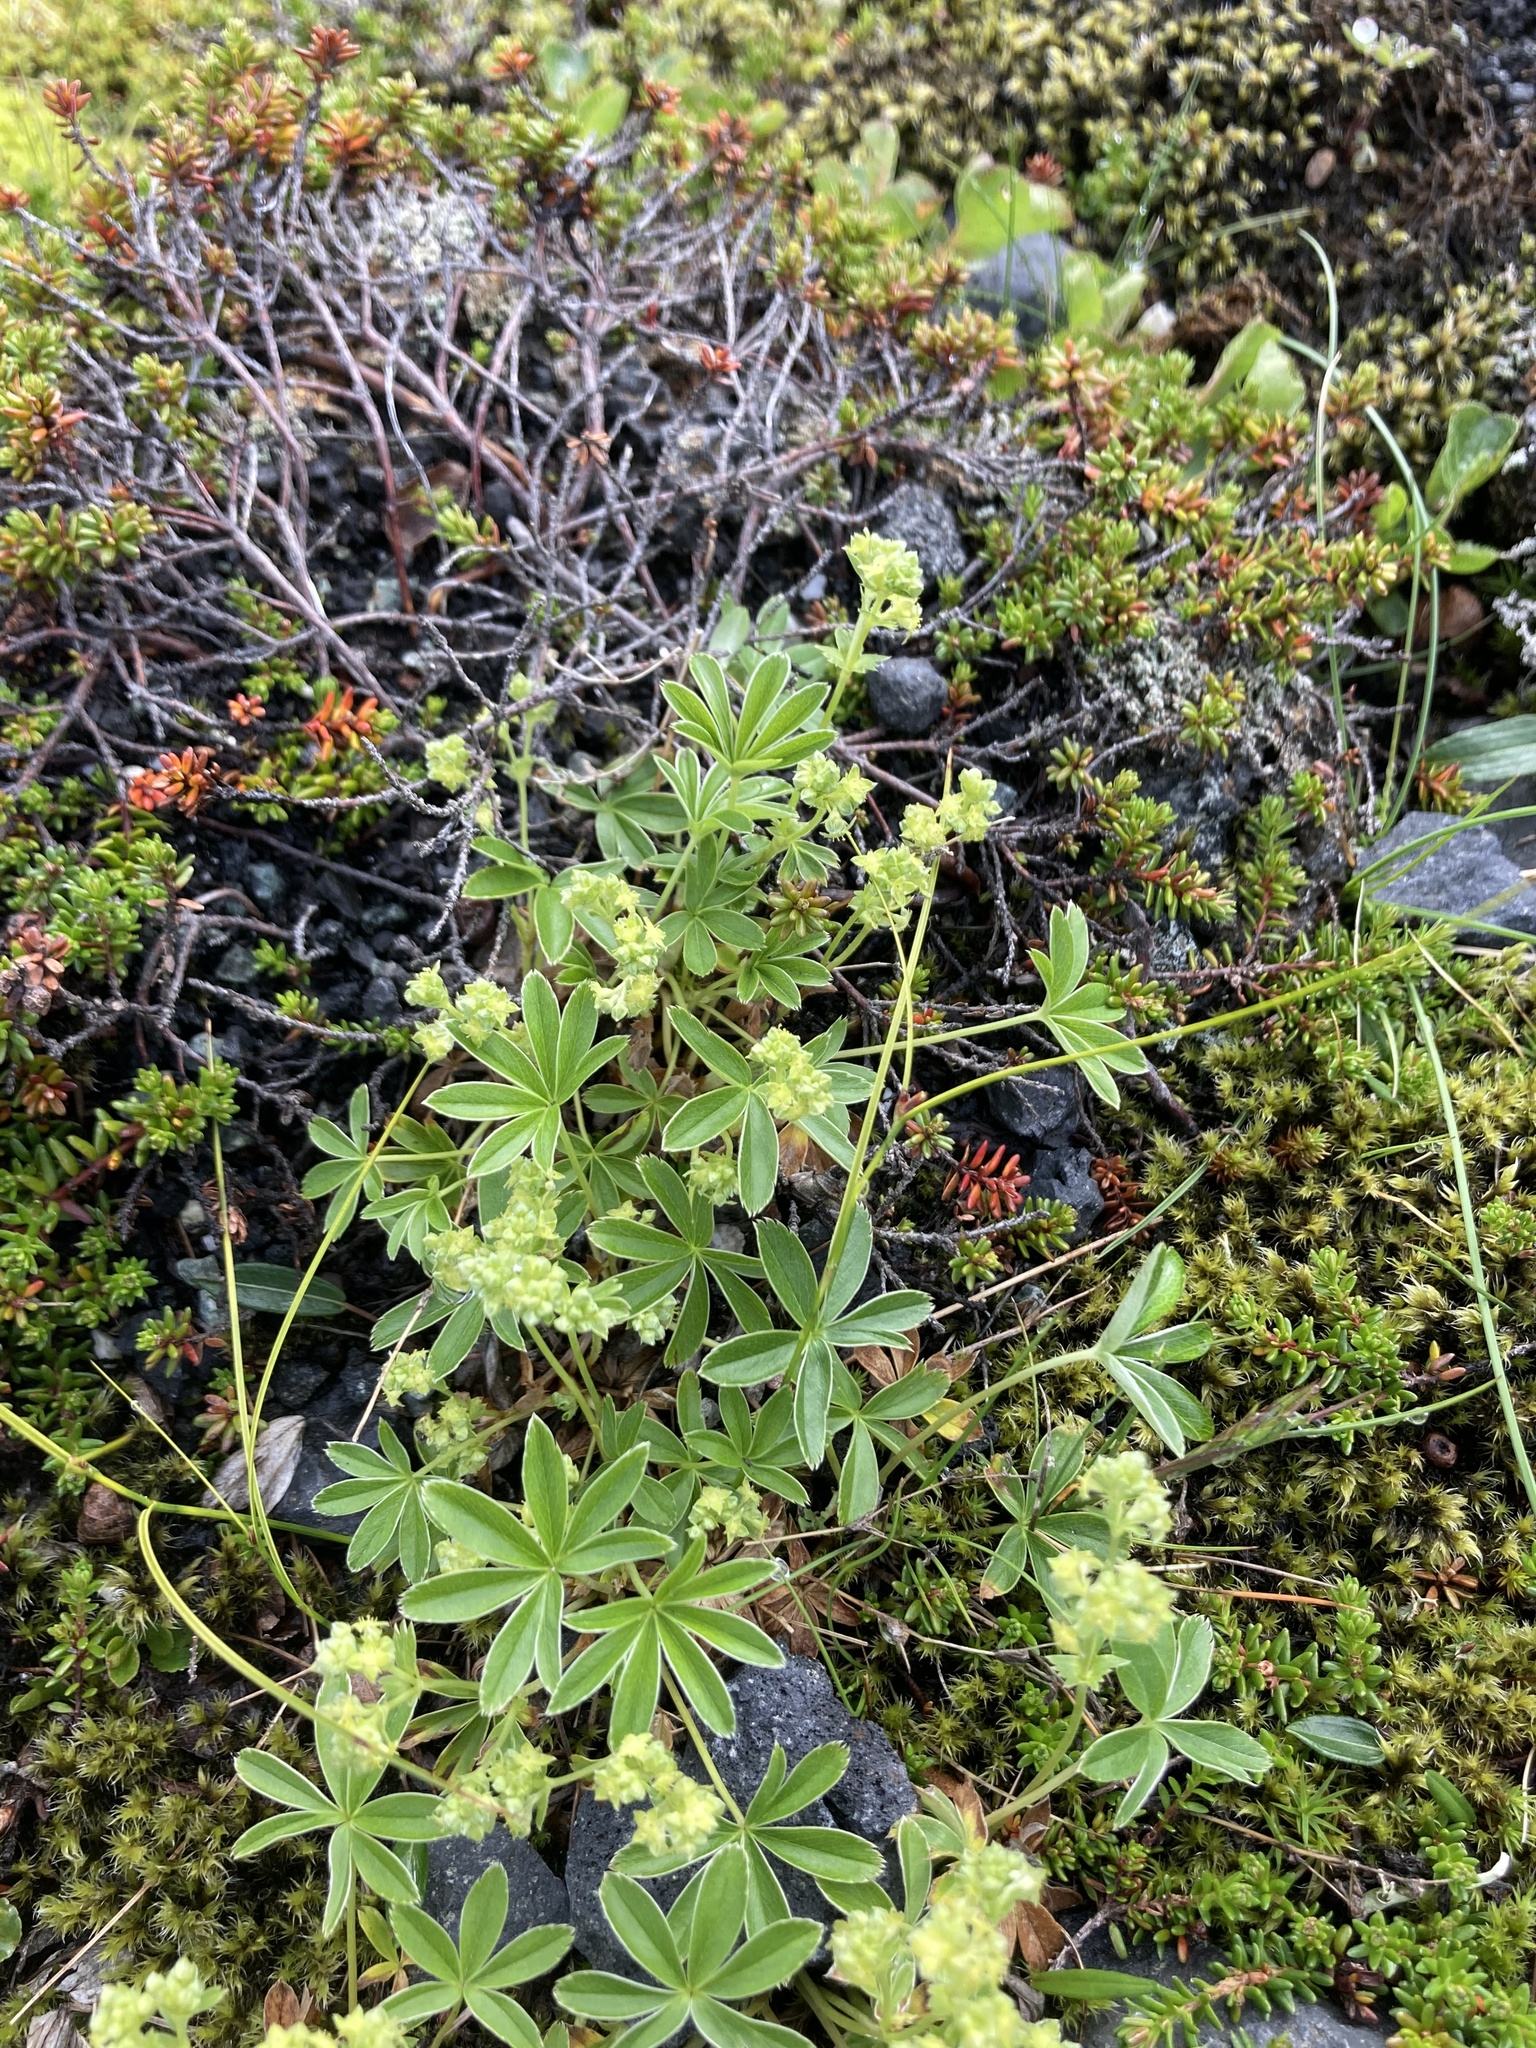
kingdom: Plantae
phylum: Tracheophyta
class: Magnoliopsida
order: Rosales
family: Rosaceae
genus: Alchemilla
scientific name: Alchemilla alpina
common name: Alpine lady's-mantle
